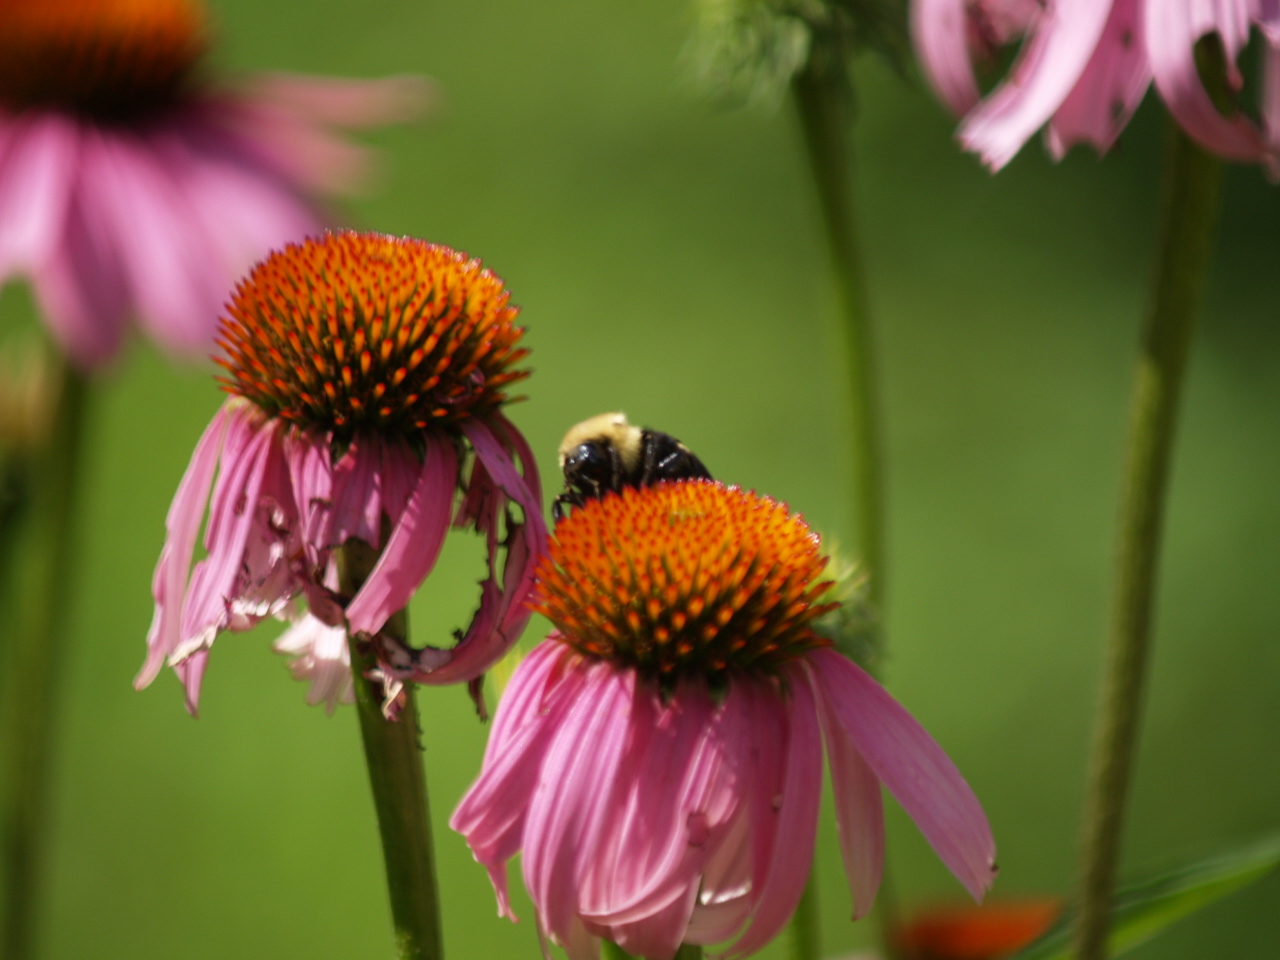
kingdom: Animalia
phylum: Arthropoda
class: Insecta
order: Hymenoptera
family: Apidae
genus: Bombus
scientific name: Bombus citrinus
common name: Lemon cuckoo bumble bee
